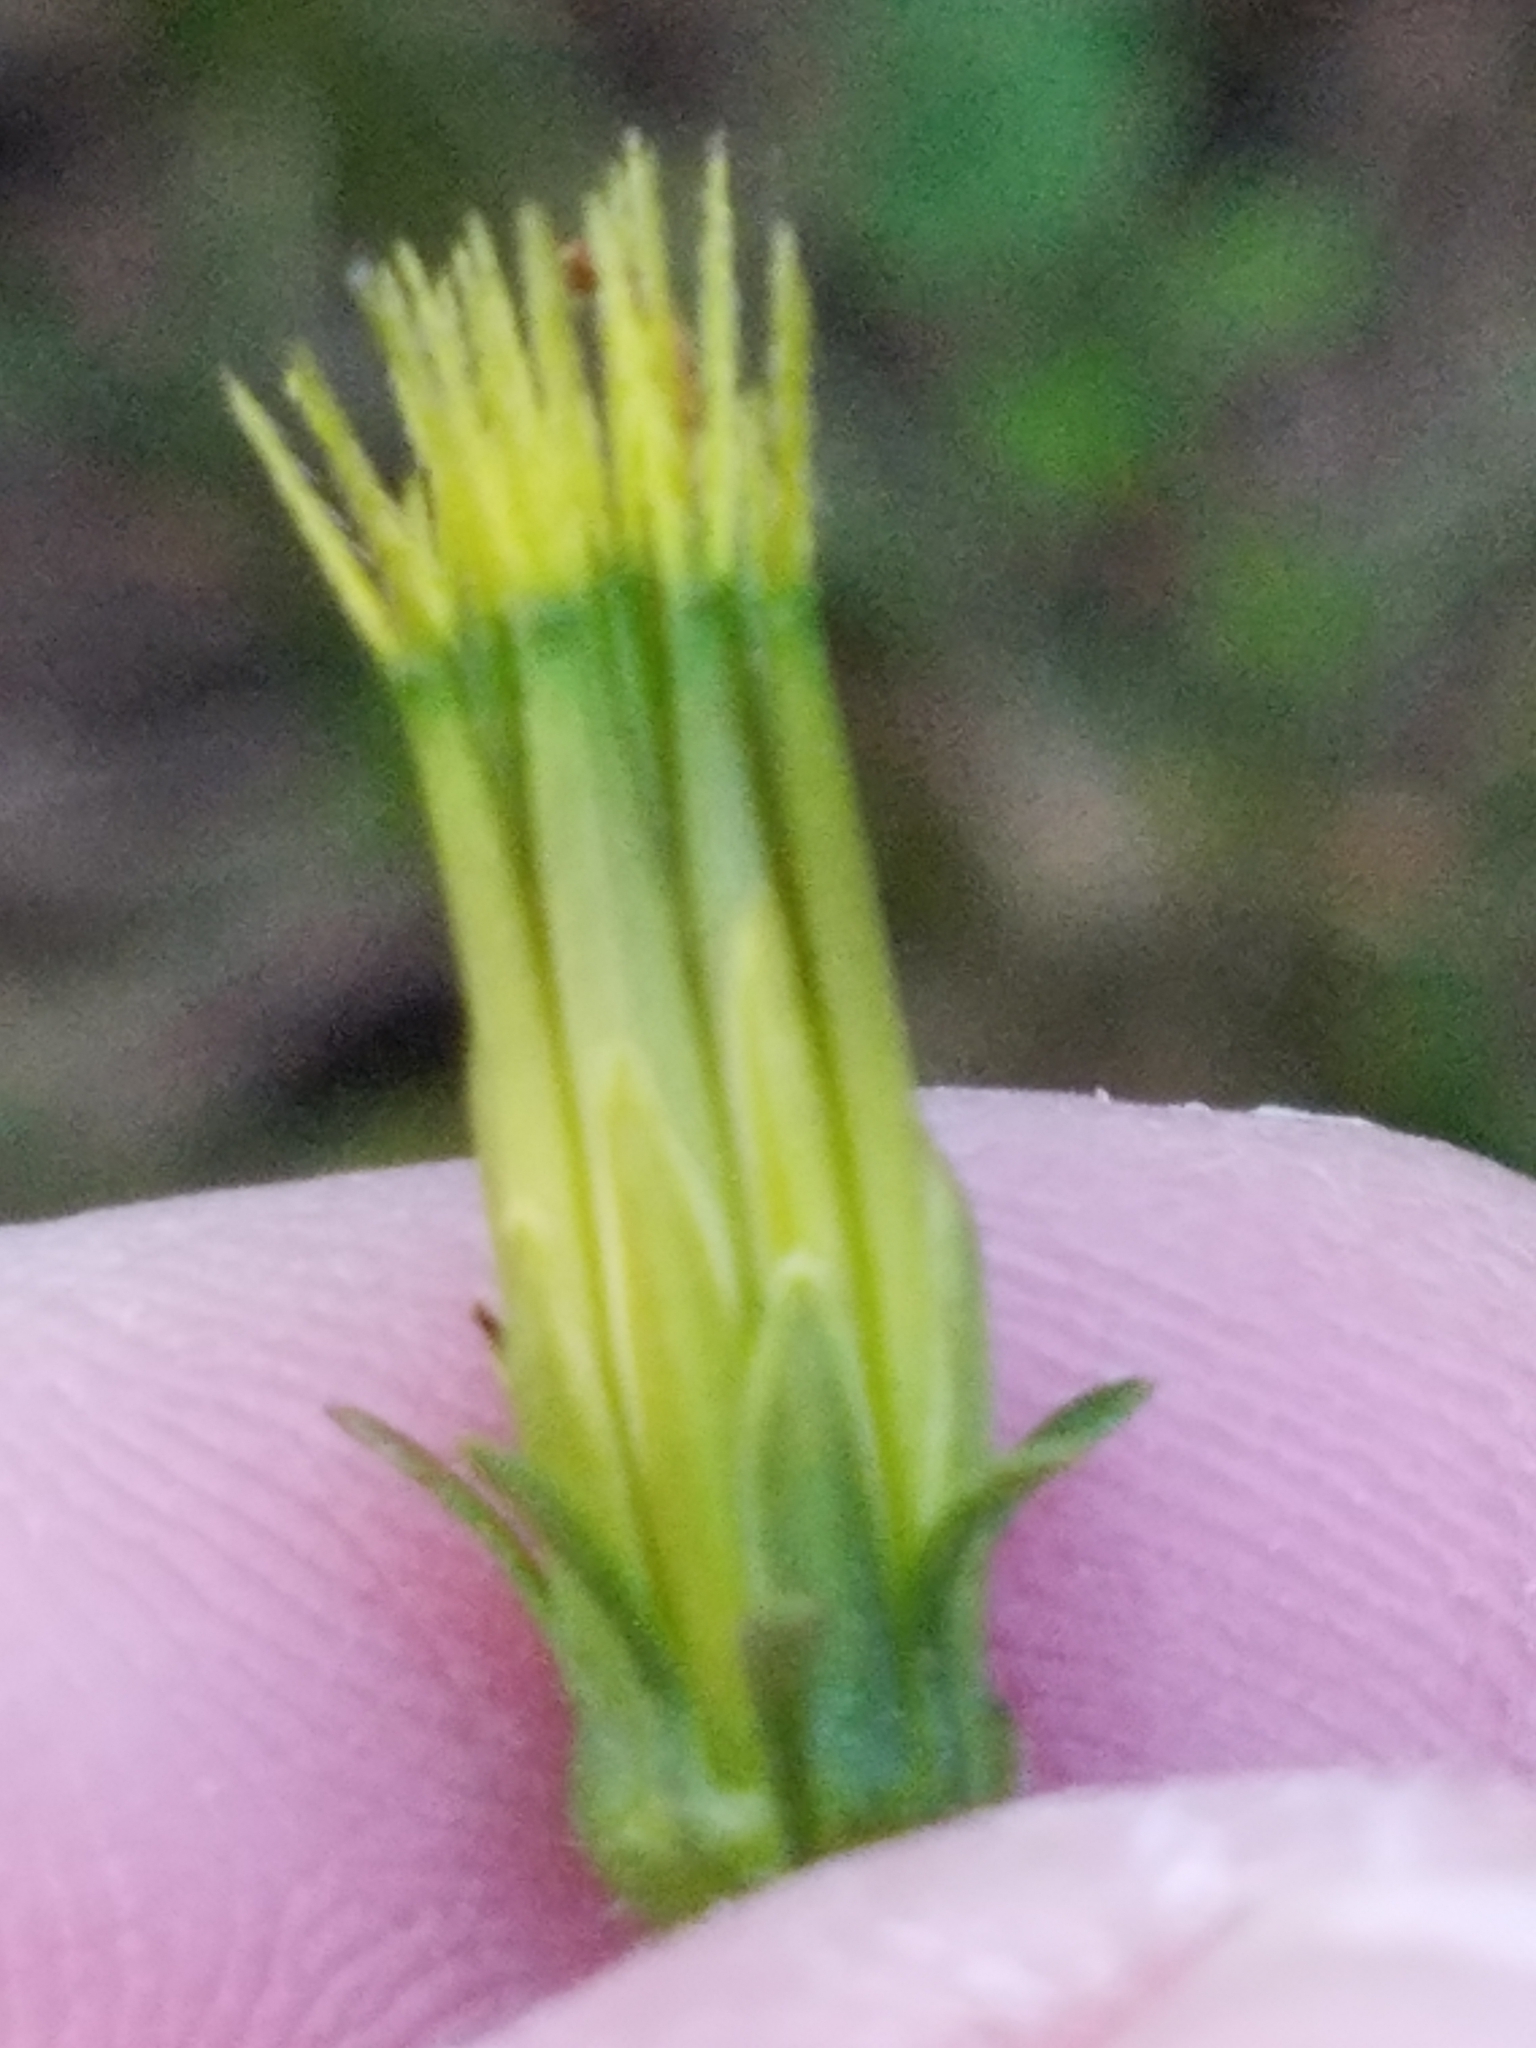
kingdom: Plantae
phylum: Tracheophyta
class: Magnoliopsida
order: Asterales
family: Asteraceae
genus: Bidens
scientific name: Bidens bipinnata
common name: Spanish-needles
